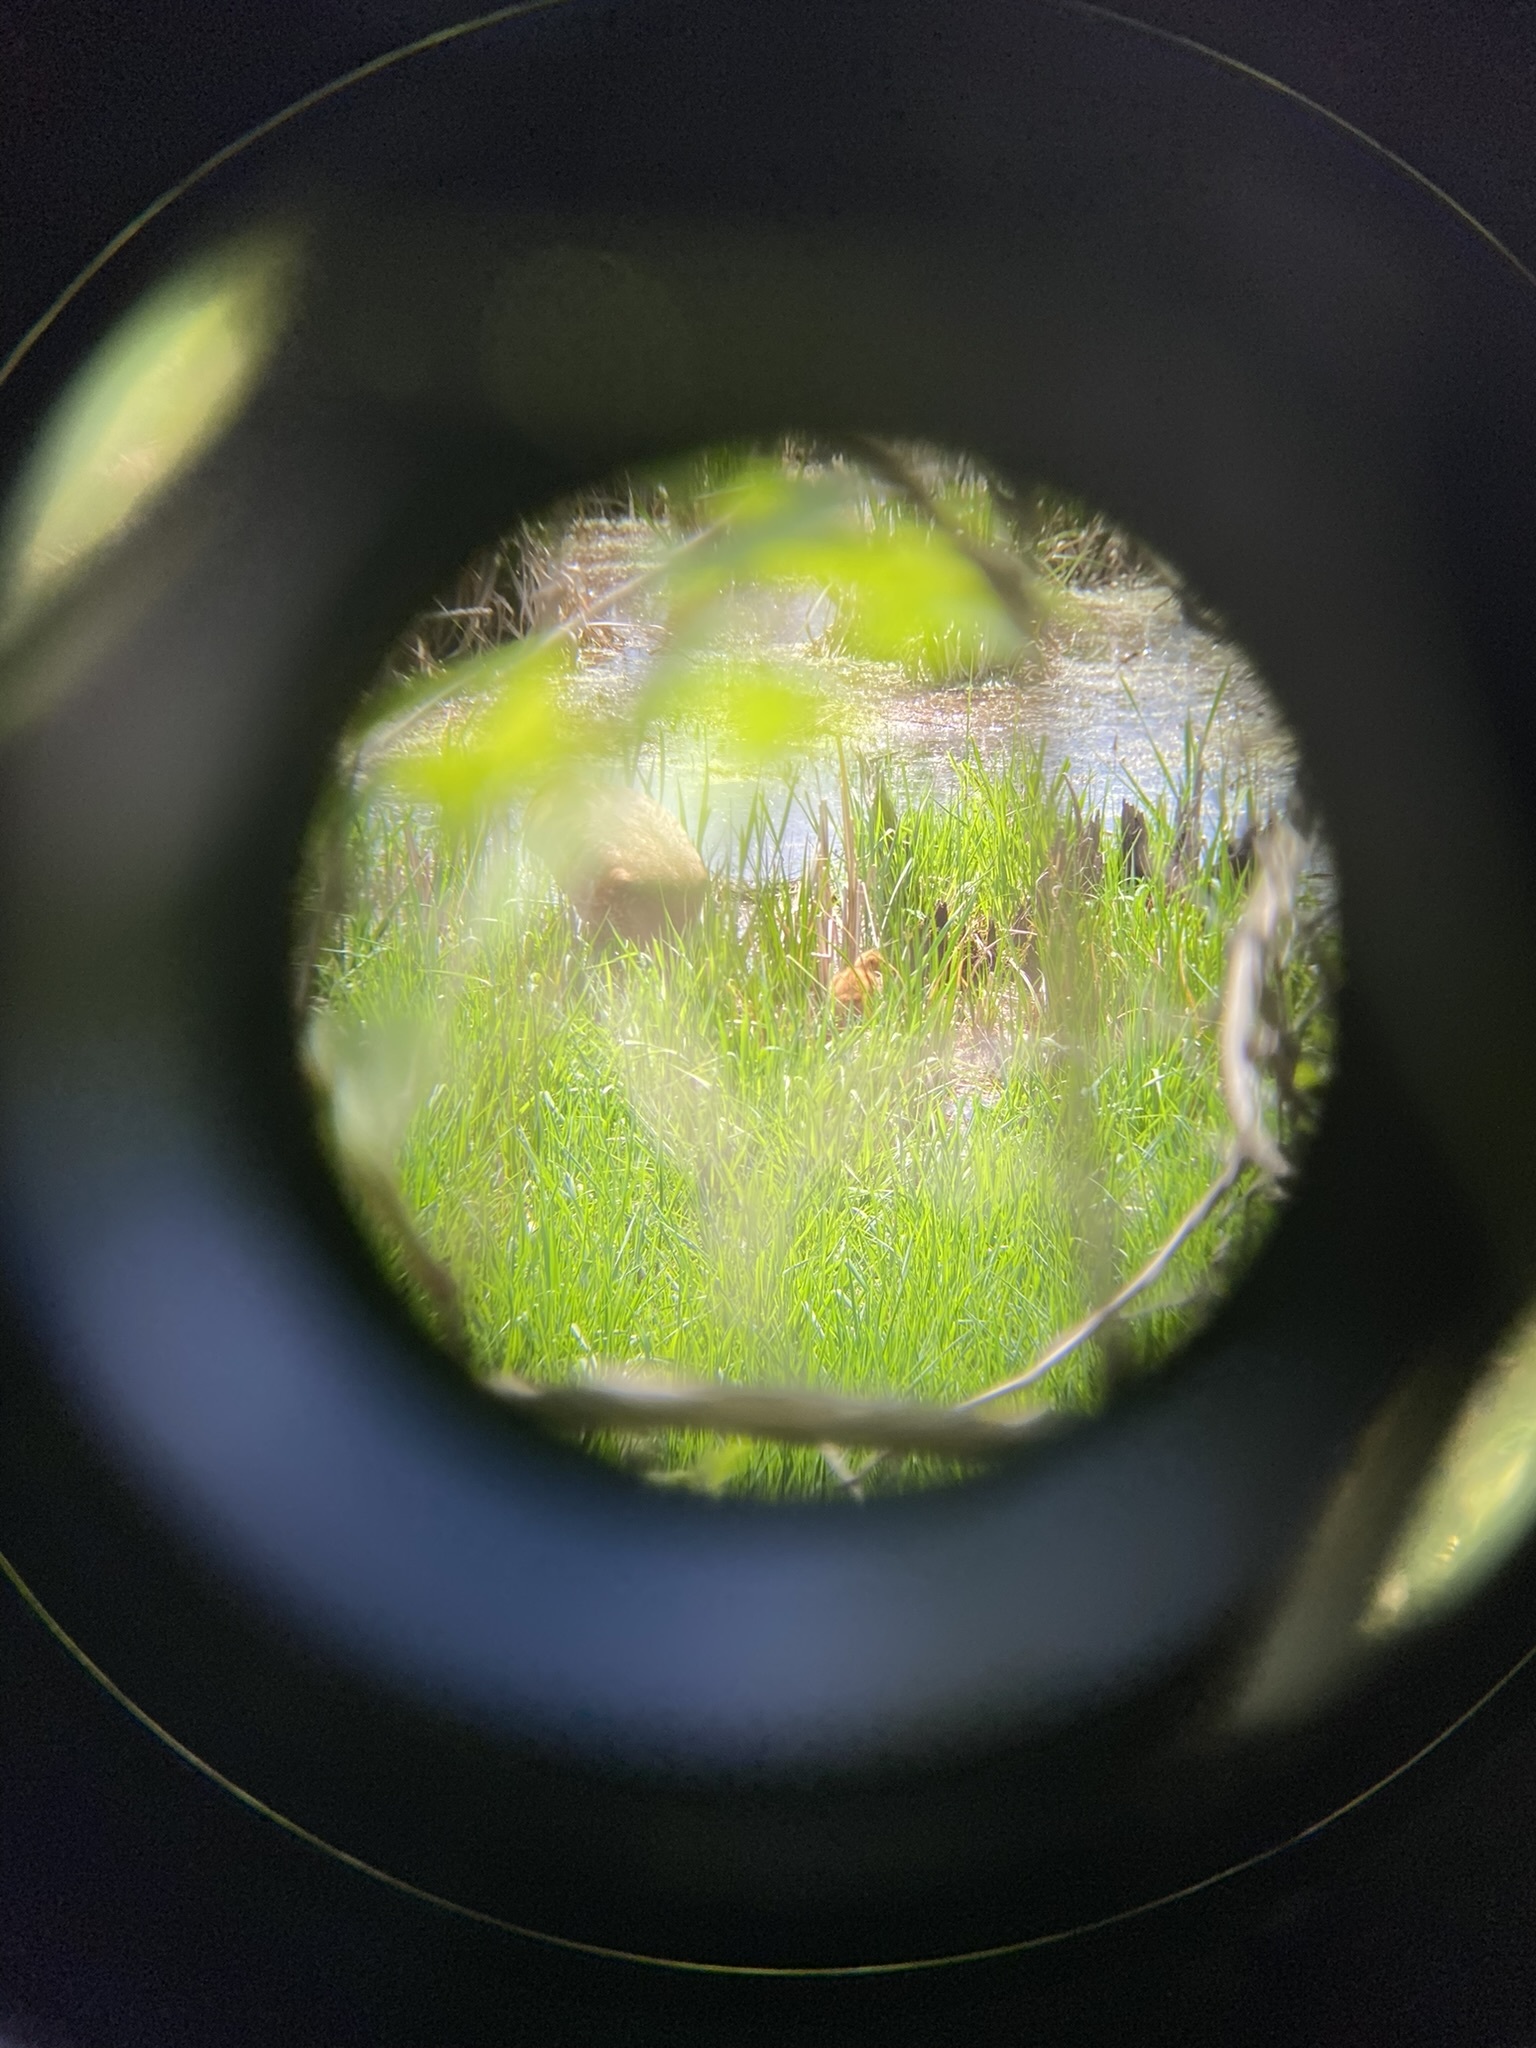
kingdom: Animalia
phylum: Chordata
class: Aves
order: Gruiformes
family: Gruidae
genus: Grus
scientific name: Grus canadensis
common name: Sandhill crane
